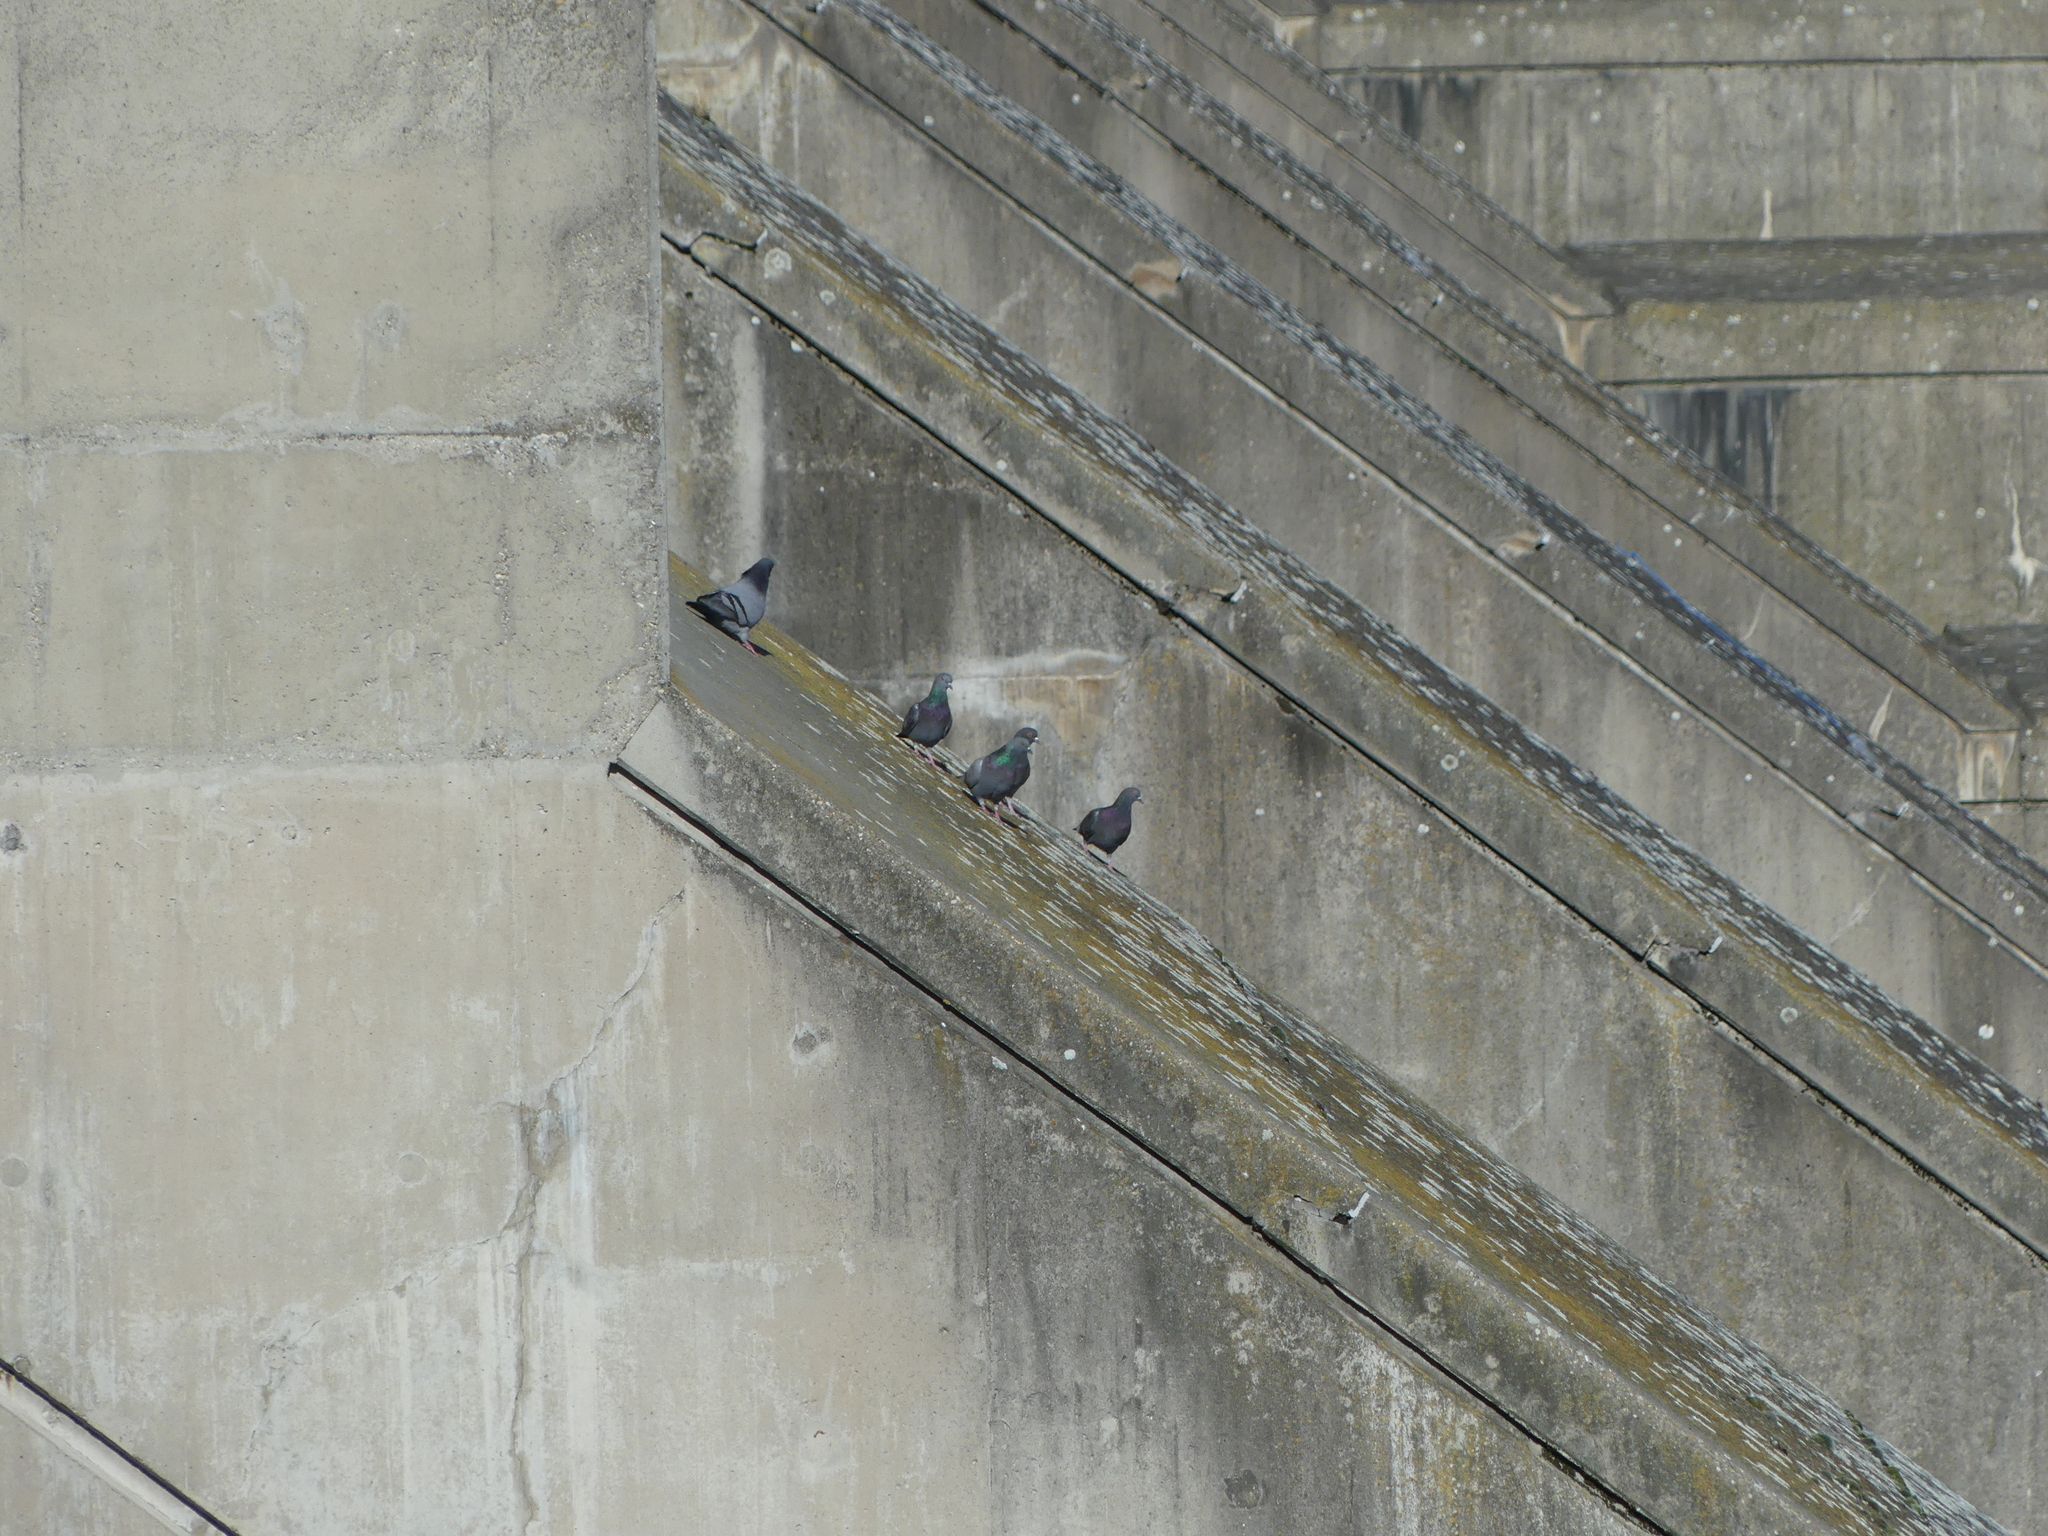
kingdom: Animalia
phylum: Chordata
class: Aves
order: Columbiformes
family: Columbidae
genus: Columba
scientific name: Columba livia
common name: Rock pigeon
